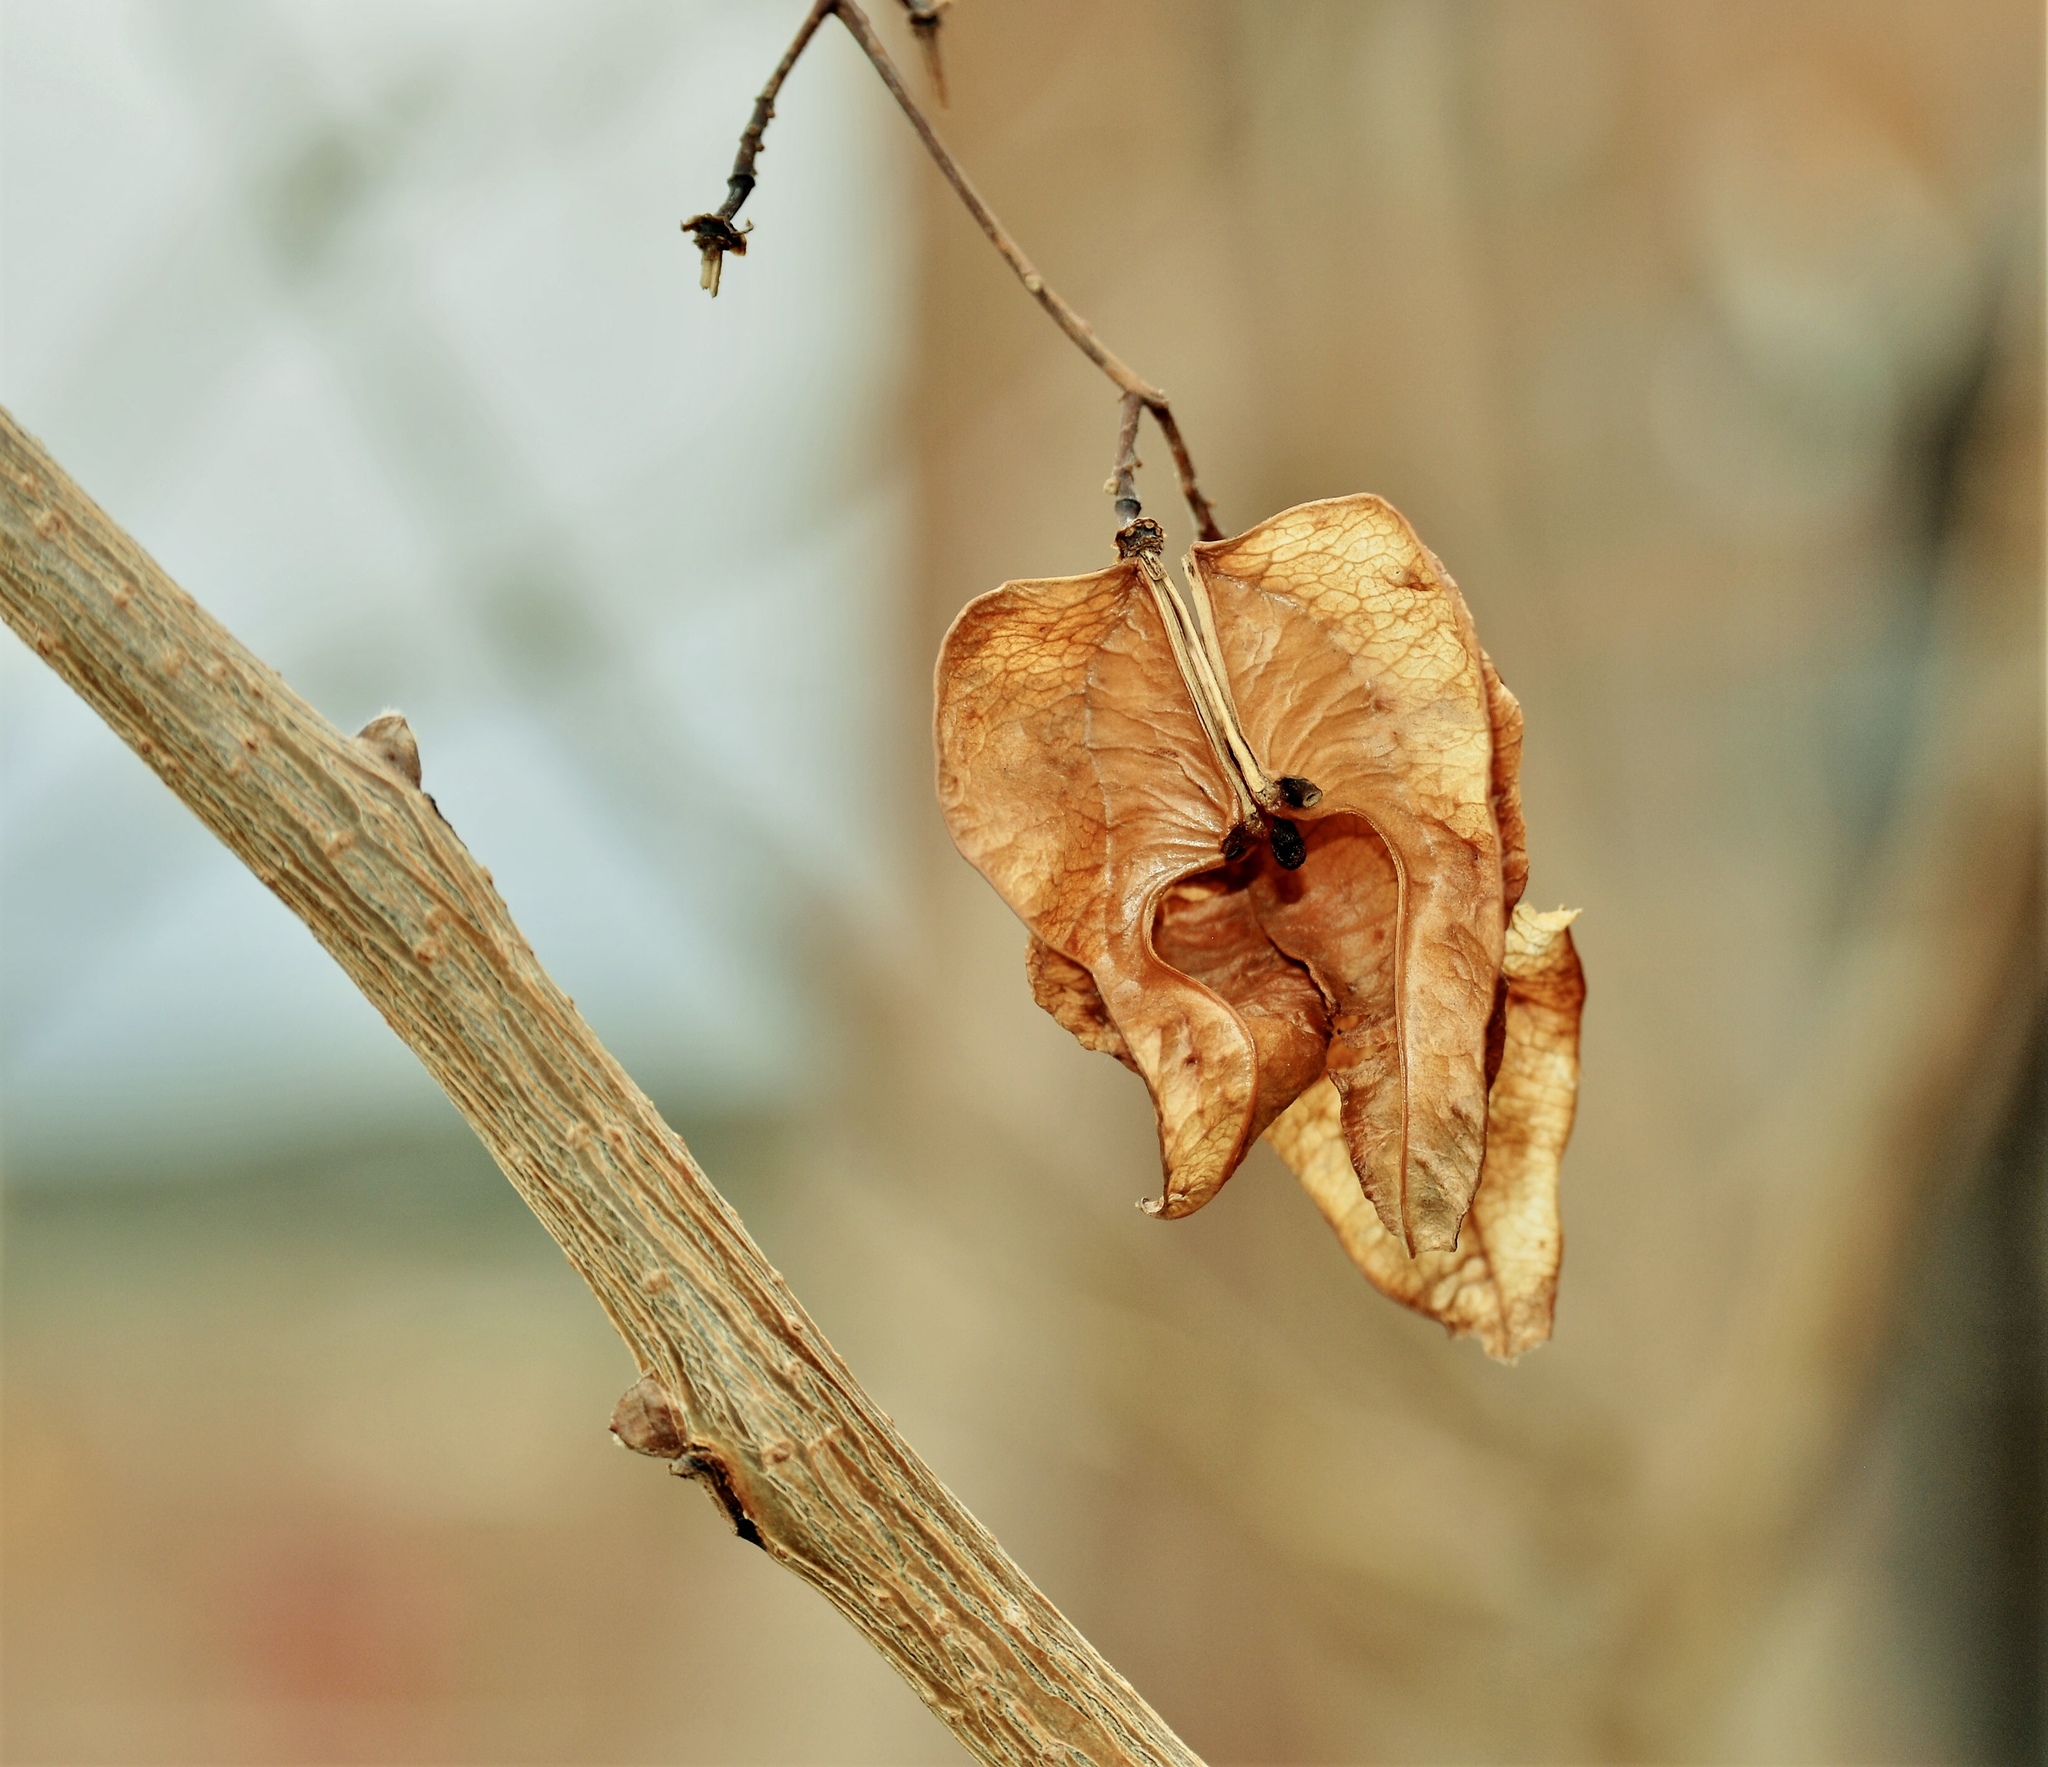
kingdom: Plantae
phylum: Tracheophyta
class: Magnoliopsida
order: Sapindales
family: Sapindaceae
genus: Koelreuteria
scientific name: Koelreuteria paniculata
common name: Pride-of-india
